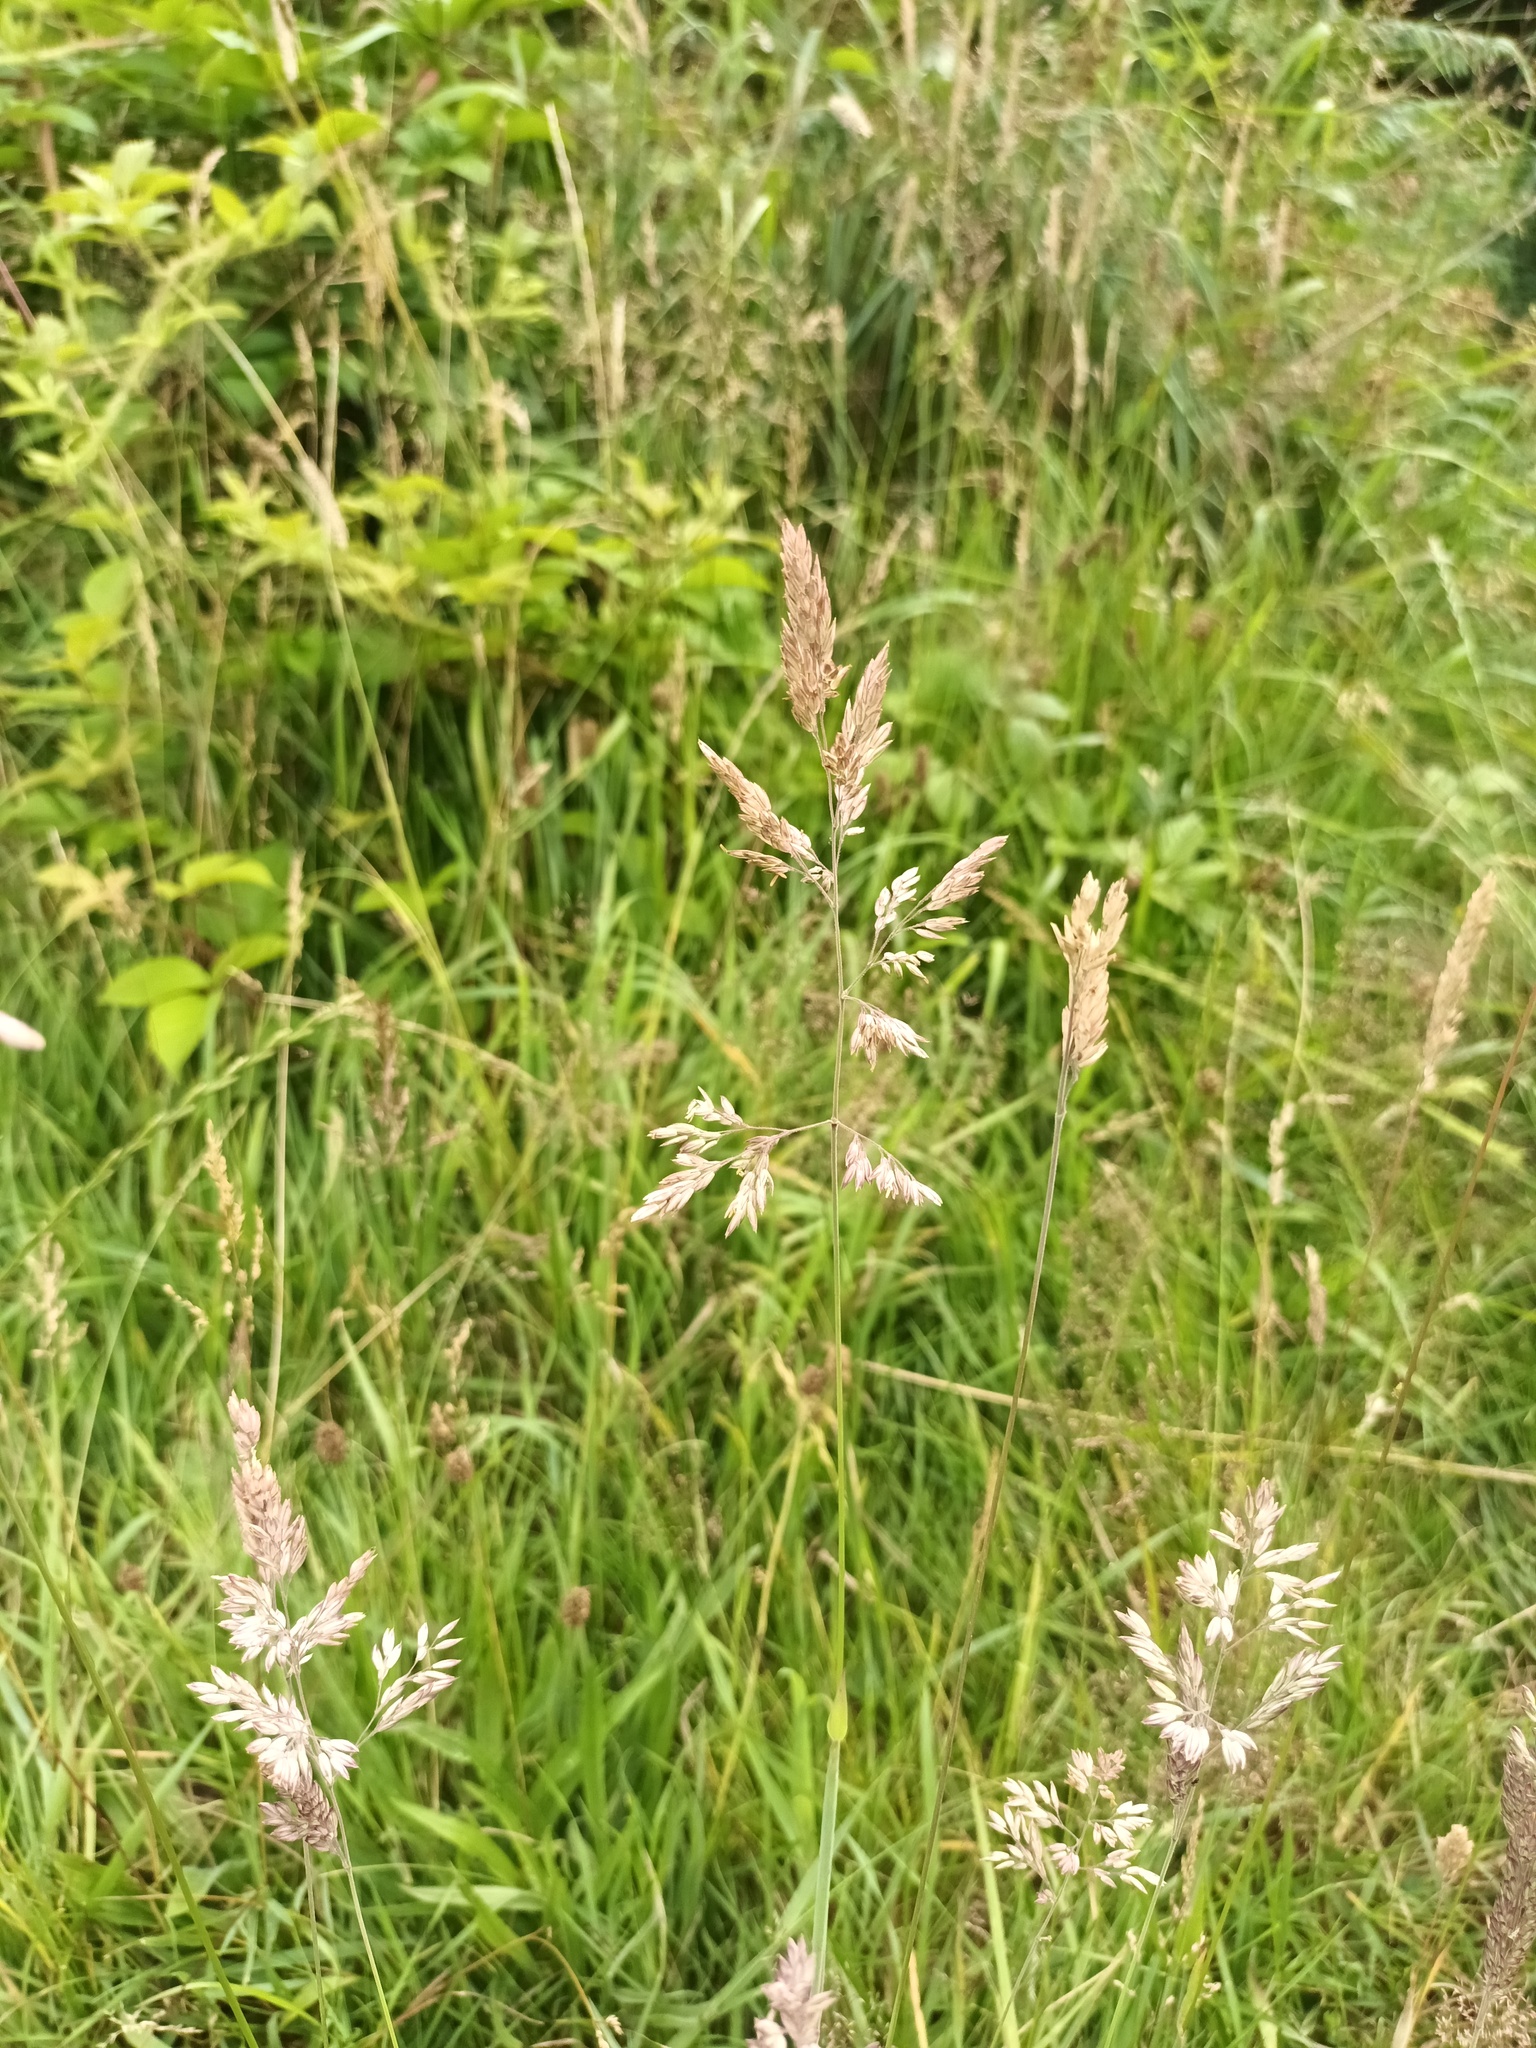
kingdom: Plantae
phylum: Tracheophyta
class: Liliopsida
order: Poales
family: Poaceae
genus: Holcus
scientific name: Holcus lanatus
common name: Yorkshire-fog
